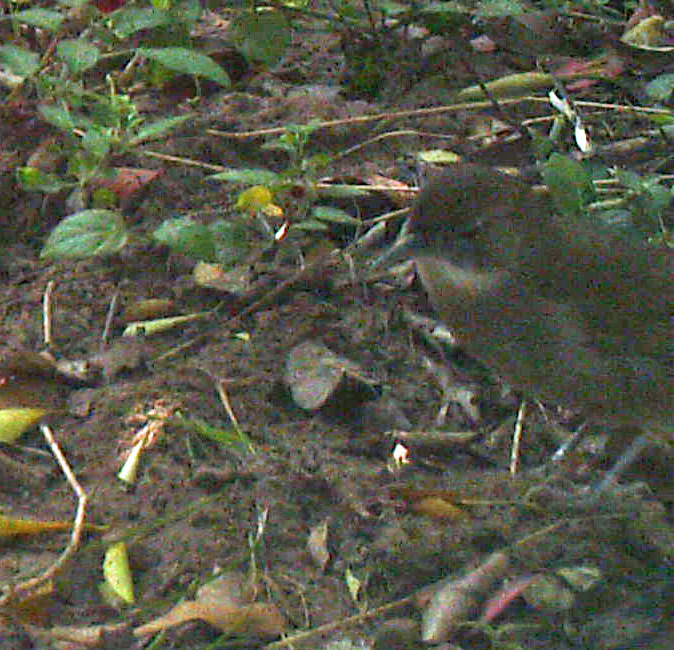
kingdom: Animalia
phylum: Chordata
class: Aves
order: Passeriformes
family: Pycnonotidae
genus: Phyllastrephus
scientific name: Phyllastrephus terrestris
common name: Terrestrial brownbul
